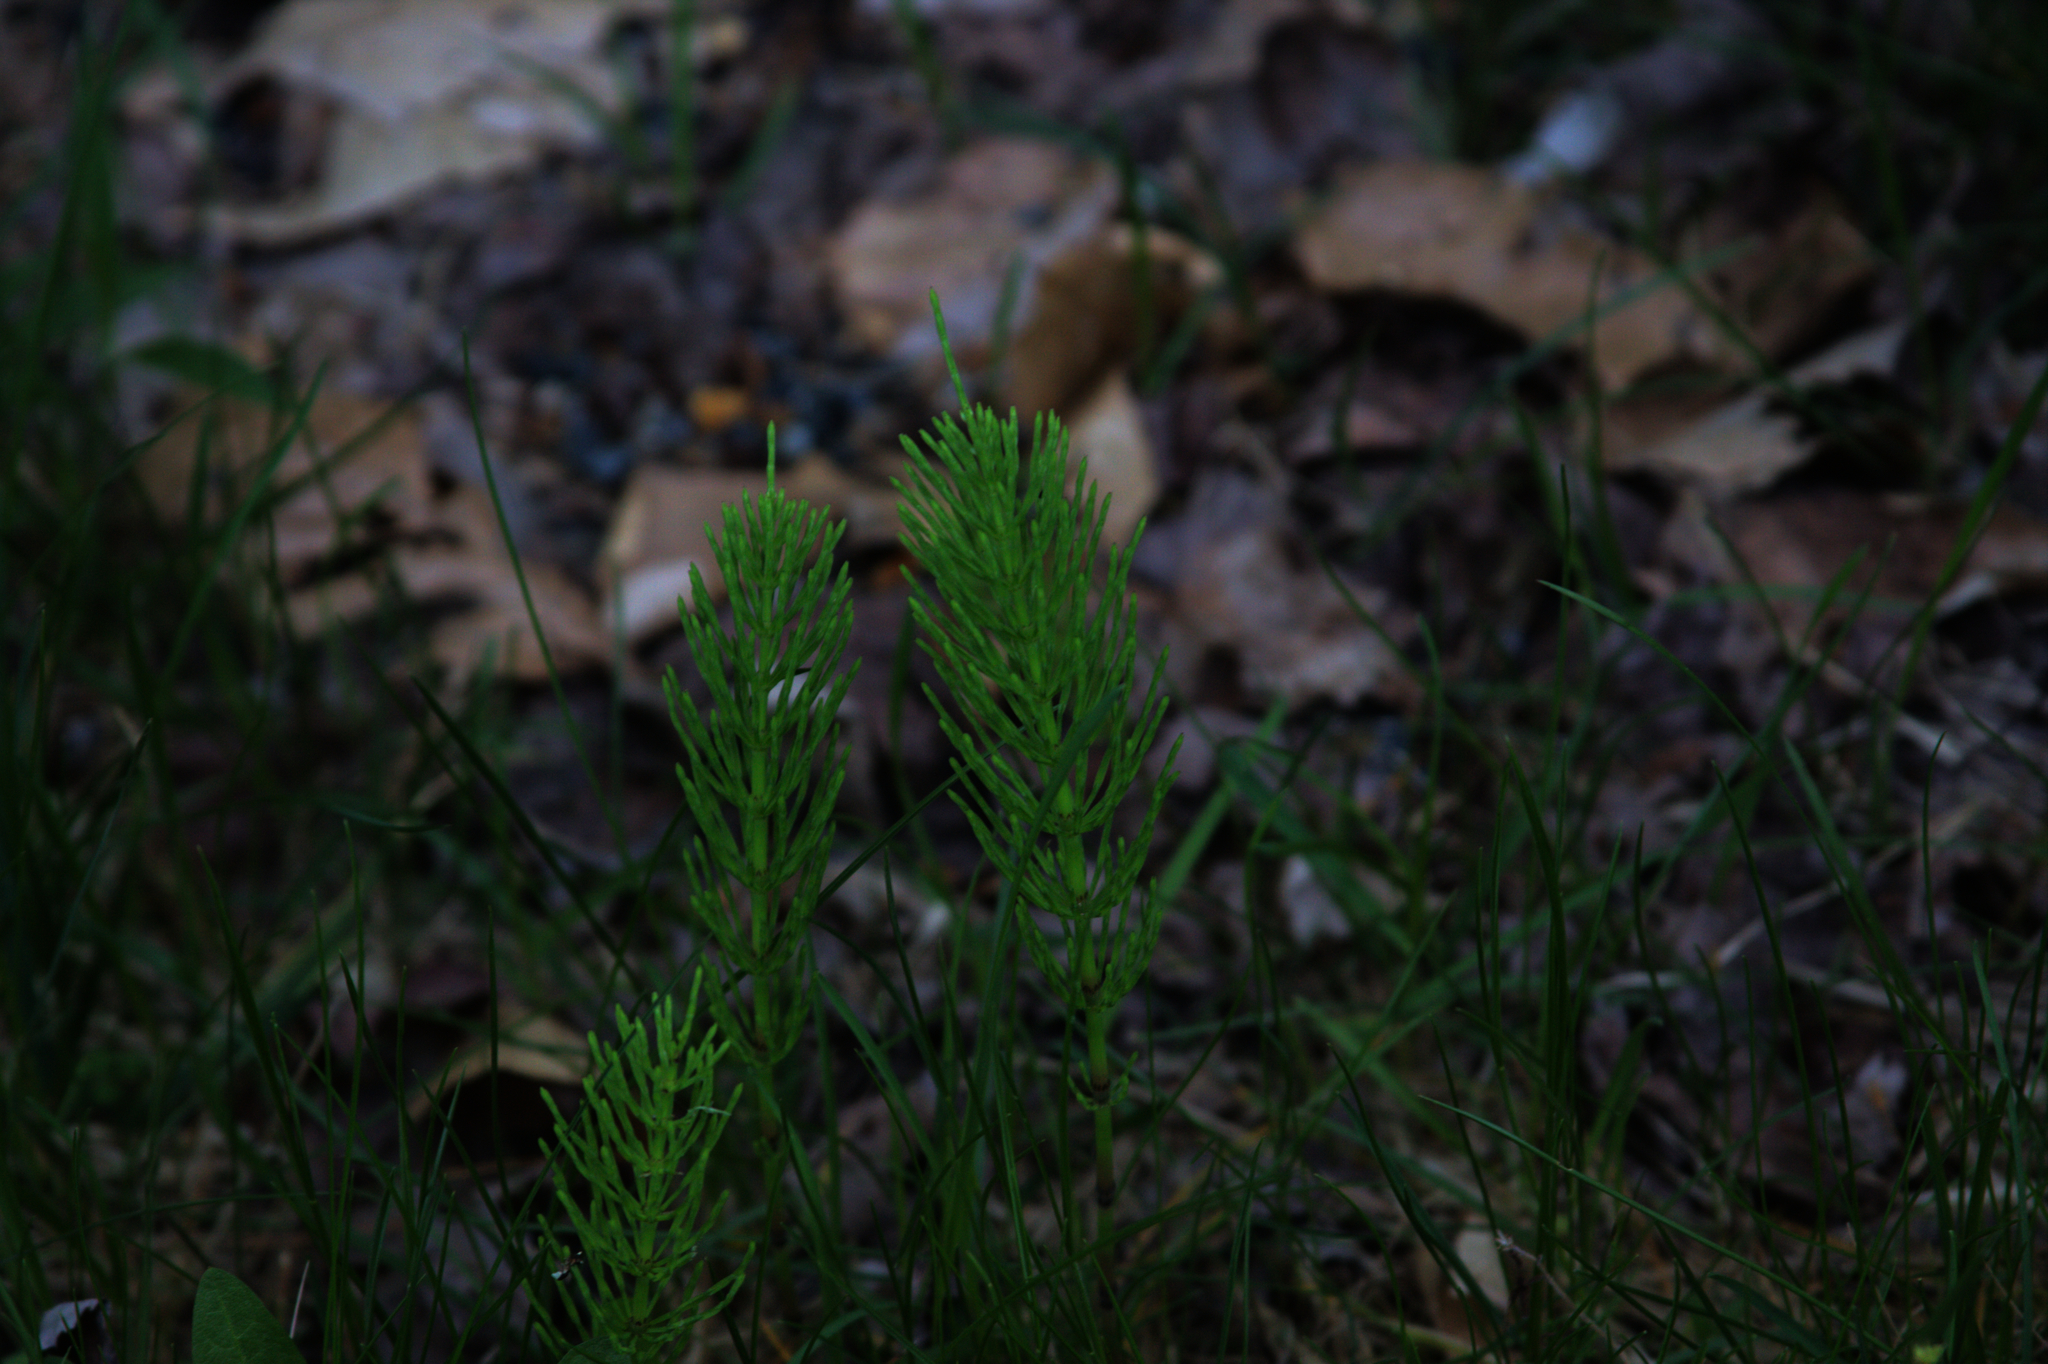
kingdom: Plantae
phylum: Tracheophyta
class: Polypodiopsida
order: Equisetales
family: Equisetaceae
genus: Equisetum
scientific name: Equisetum arvense
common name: Field horsetail
